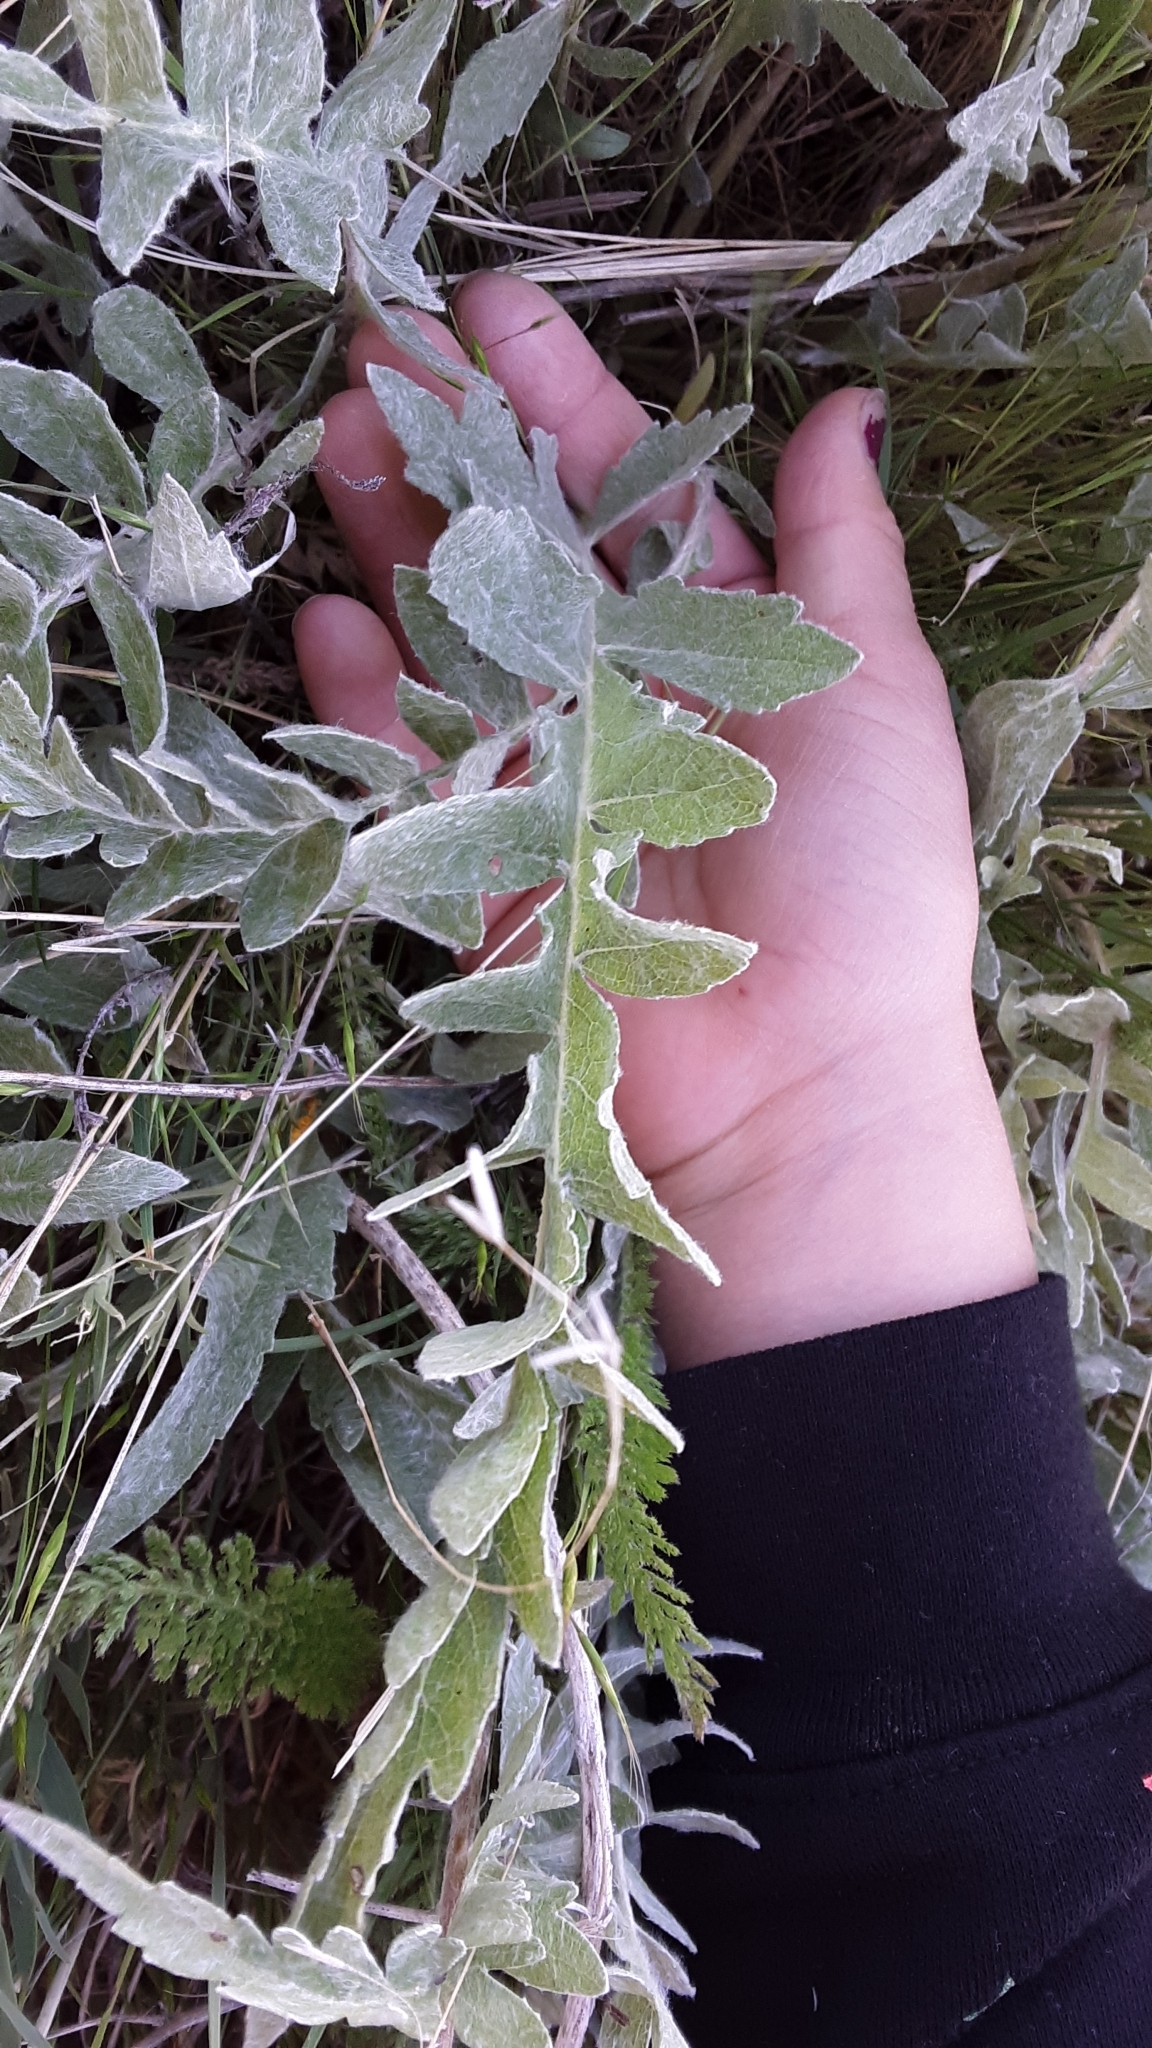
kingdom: Plantae
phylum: Tracheophyta
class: Magnoliopsida
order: Asterales
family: Asteraceae
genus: Balsamorhiza
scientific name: Balsamorhiza incana
